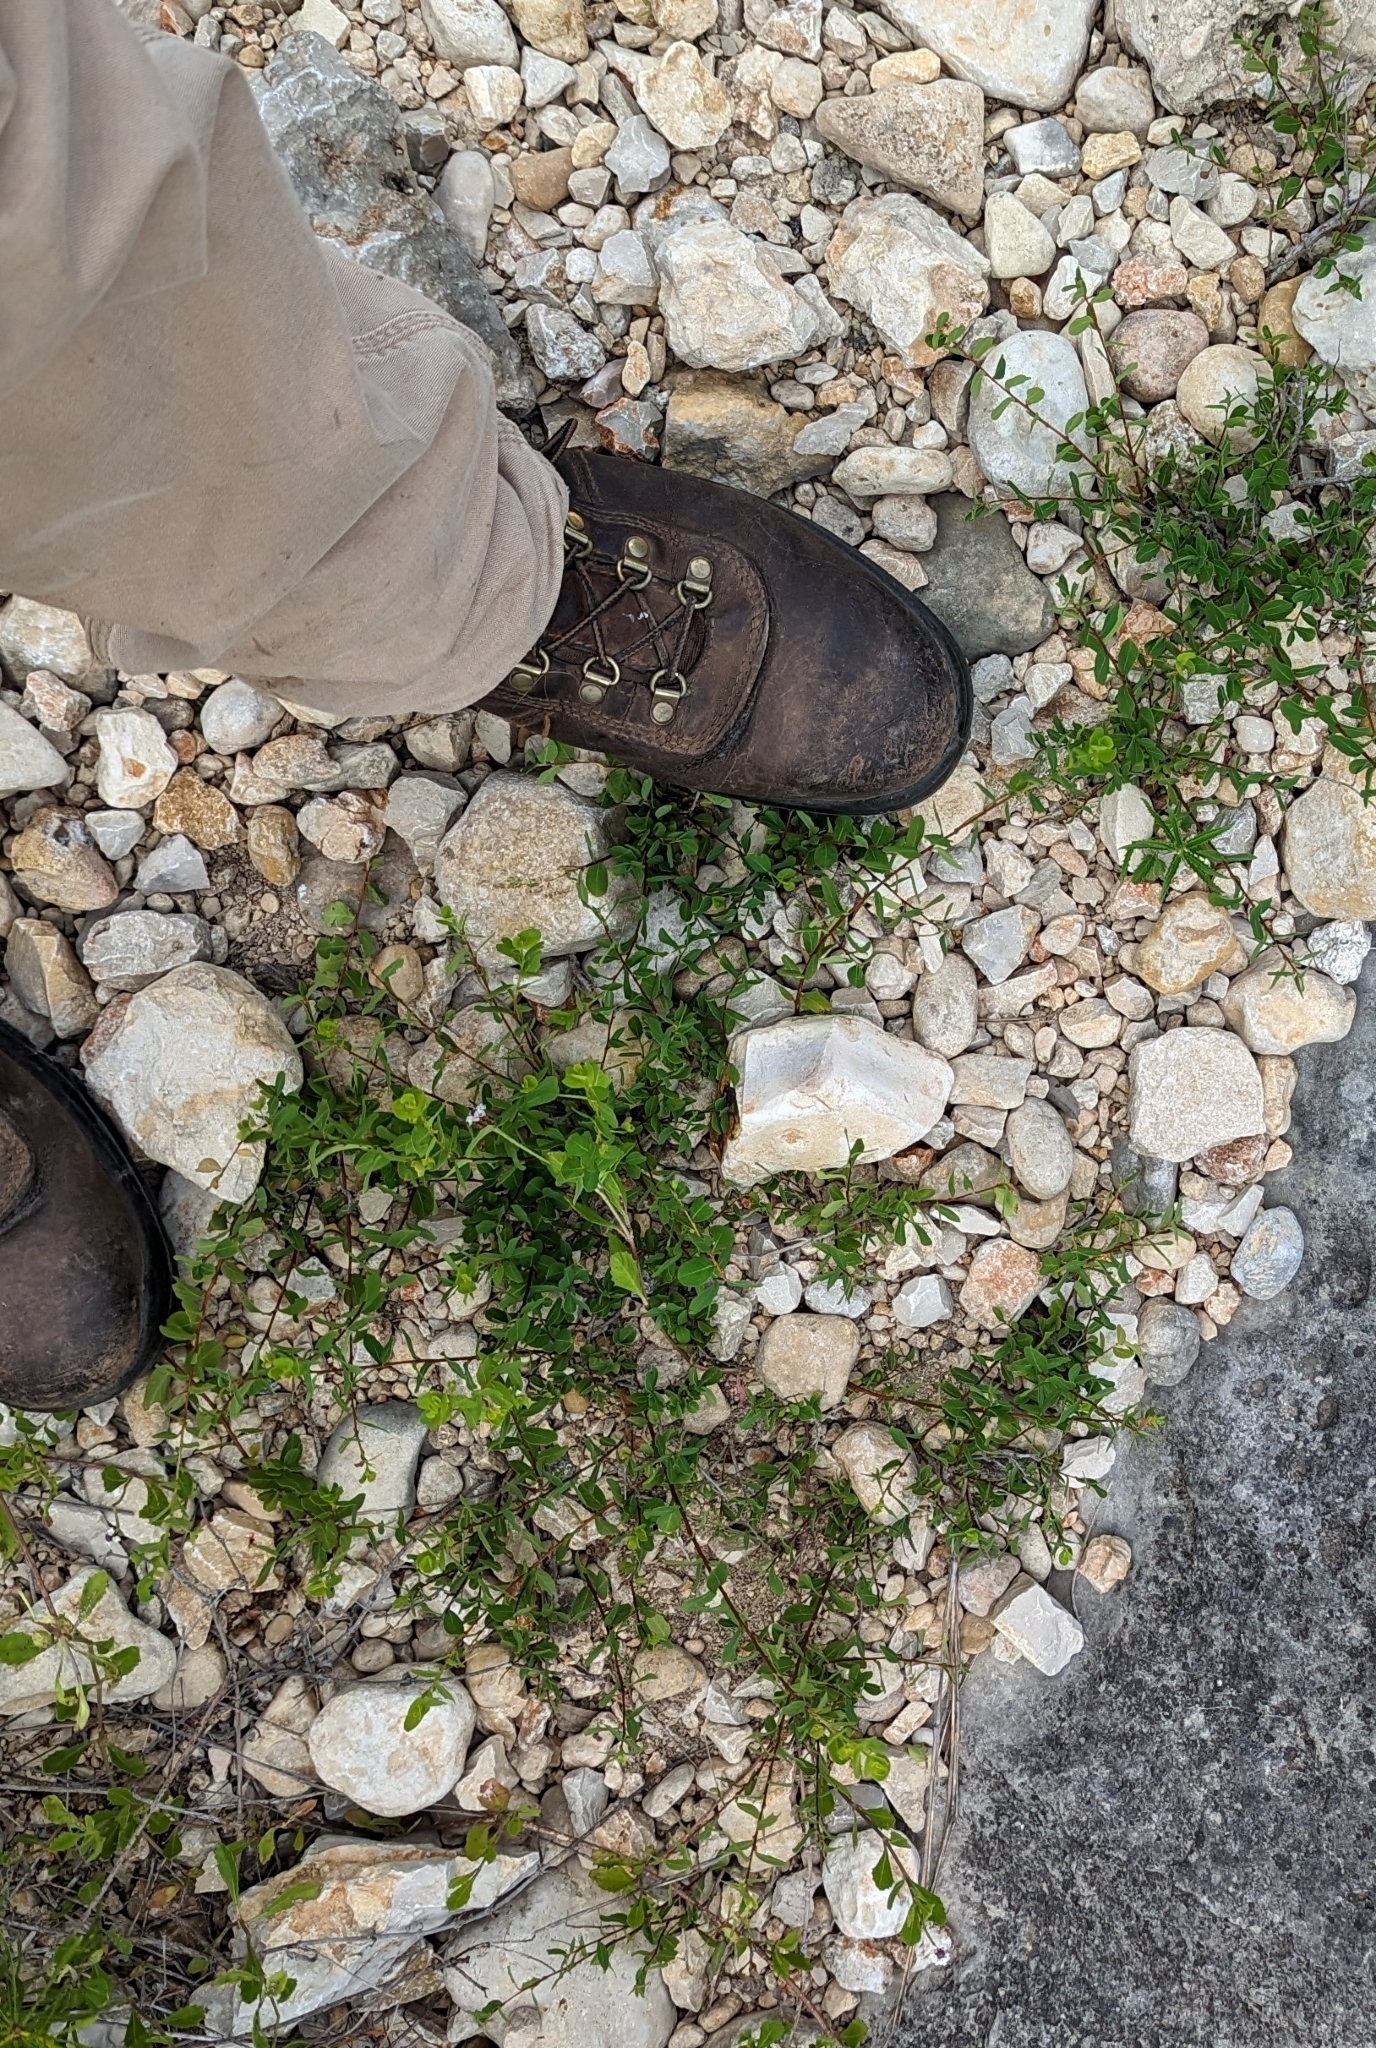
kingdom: Plantae
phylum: Tracheophyta
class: Magnoliopsida
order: Malpighiales
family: Phyllanthaceae
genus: Phyllanthopsis
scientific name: Phyllanthopsis phyllanthoides
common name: Missouri maidenbush
